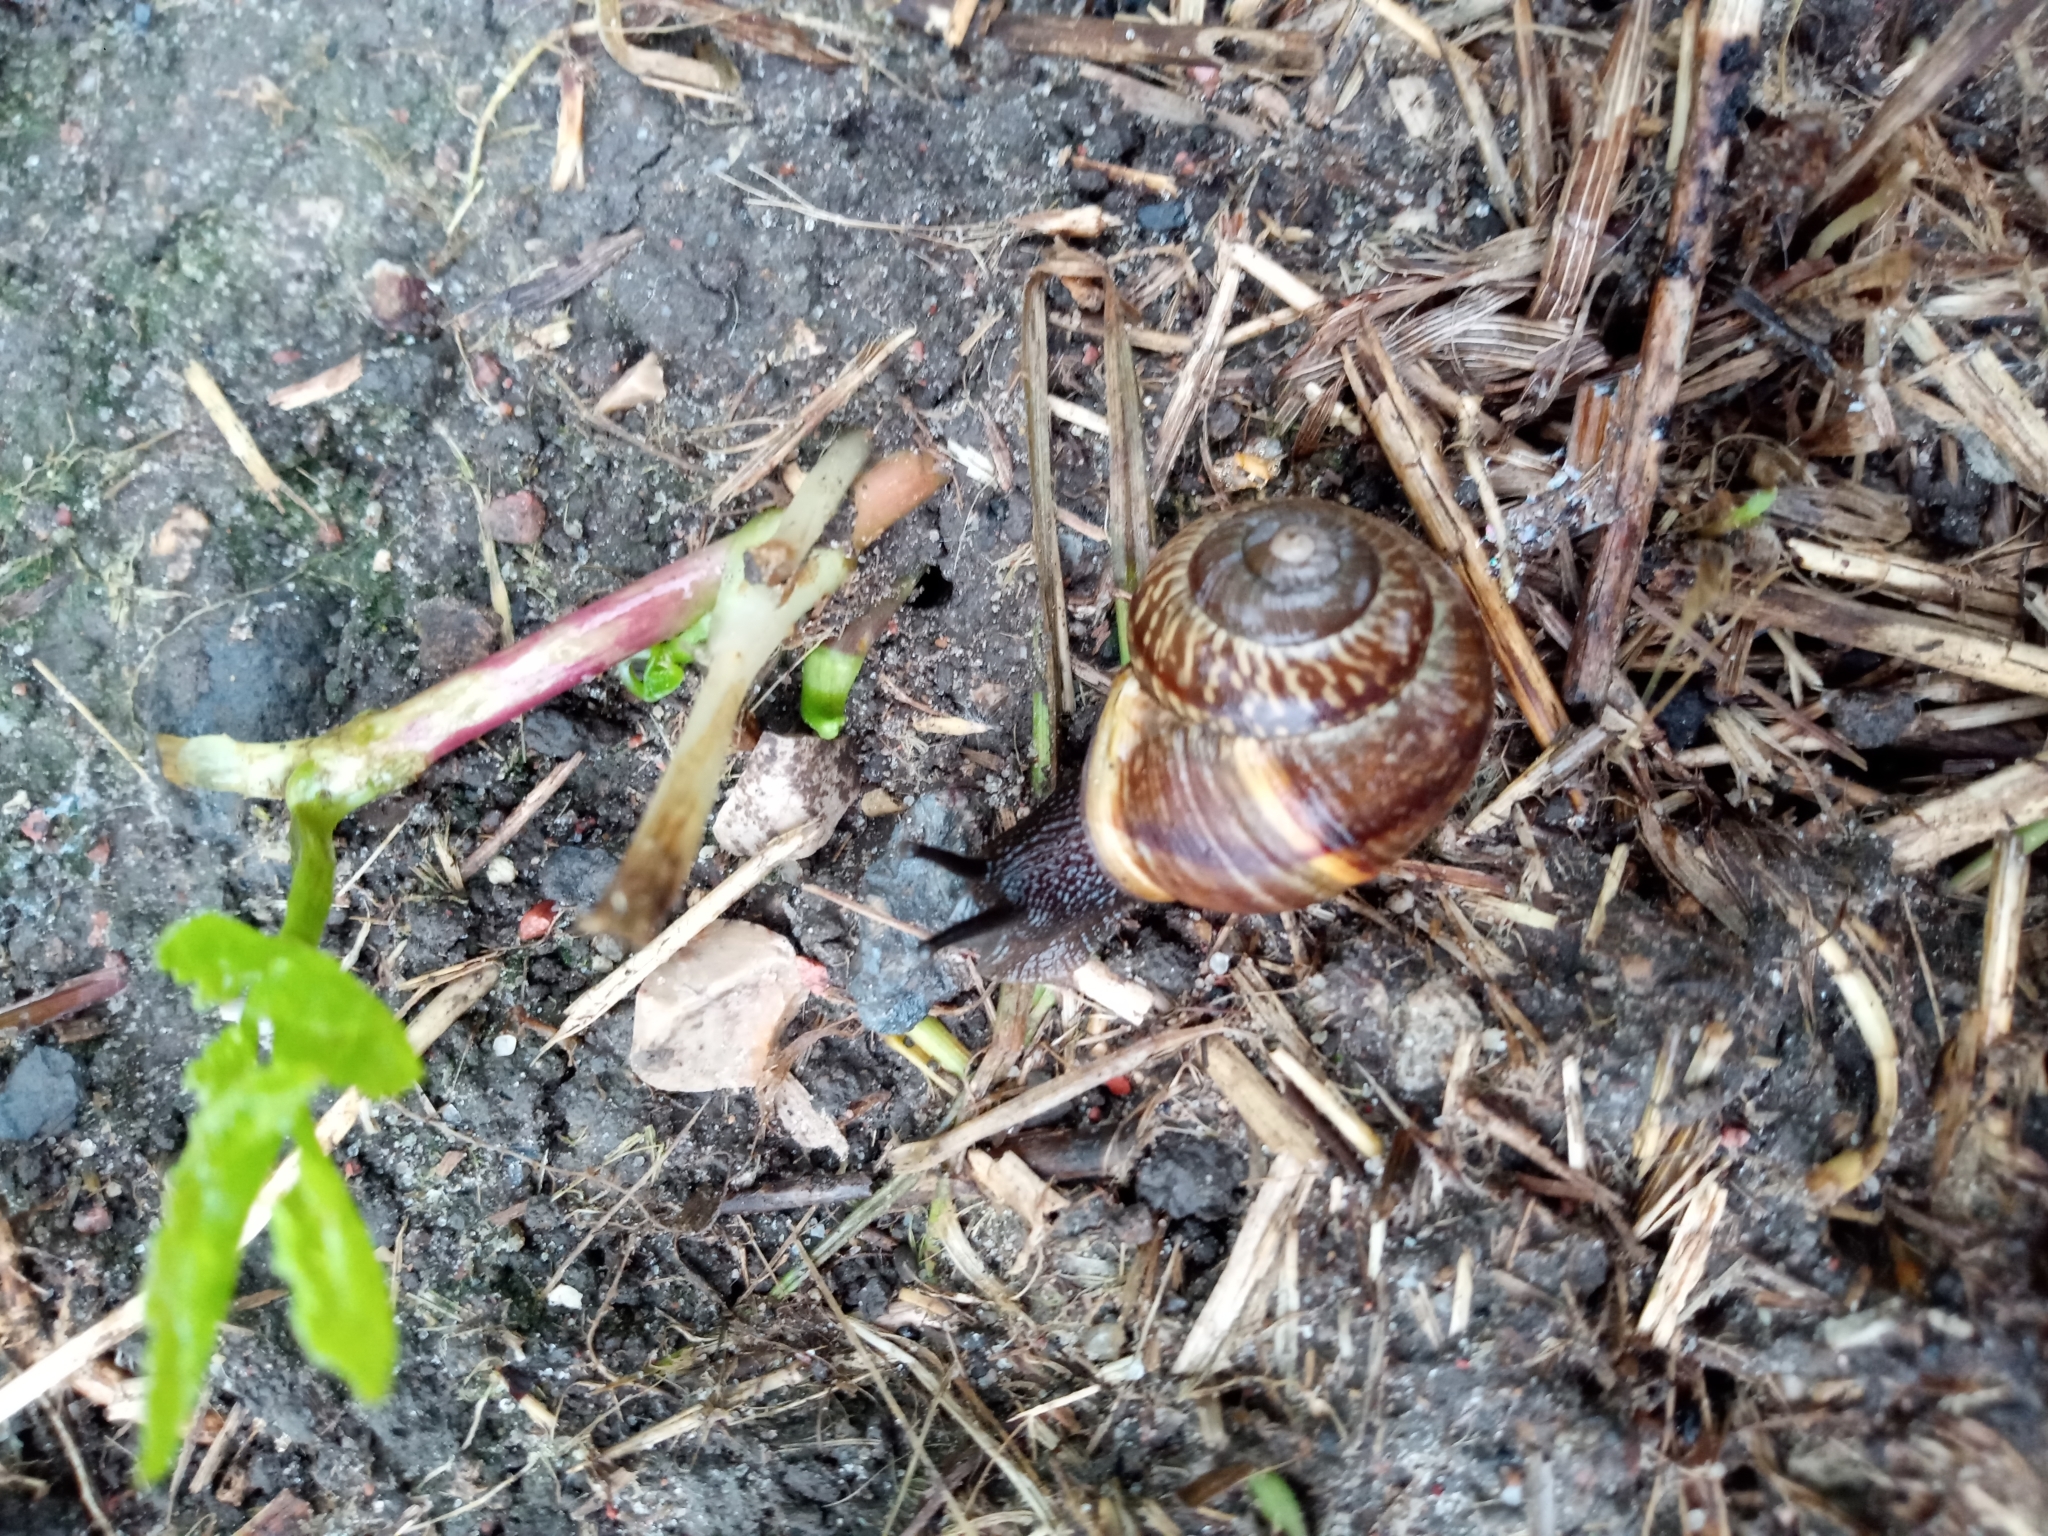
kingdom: Animalia
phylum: Mollusca
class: Gastropoda
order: Stylommatophora
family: Helicidae
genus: Arianta
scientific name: Arianta arbustorum
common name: Copse snail
